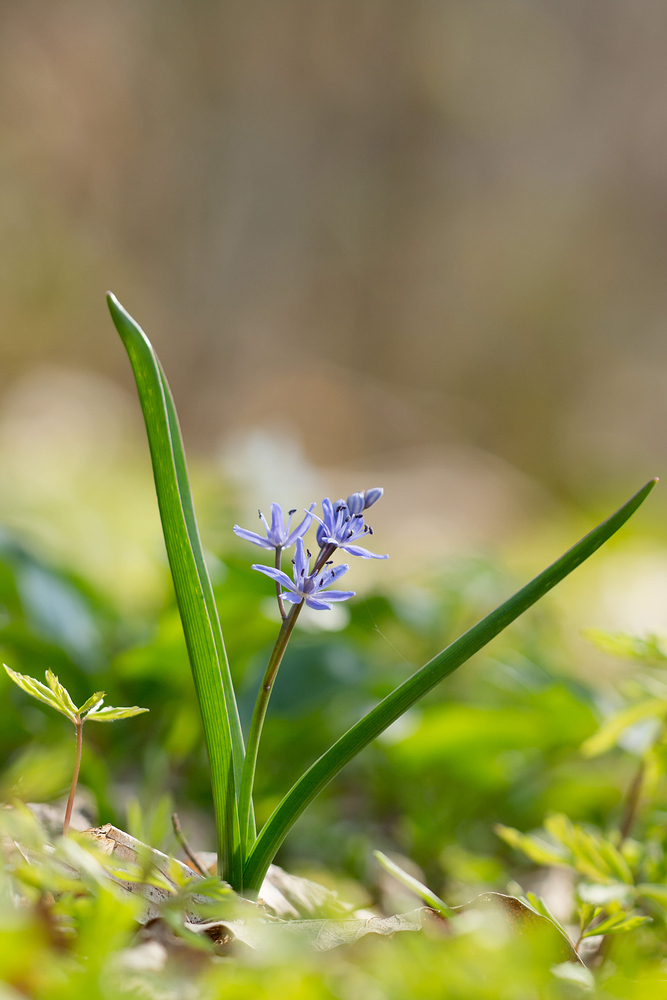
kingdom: Plantae
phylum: Tracheophyta
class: Liliopsida
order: Asparagales
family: Asparagaceae
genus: Scilla
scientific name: Scilla bifolia
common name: Alpine squill
